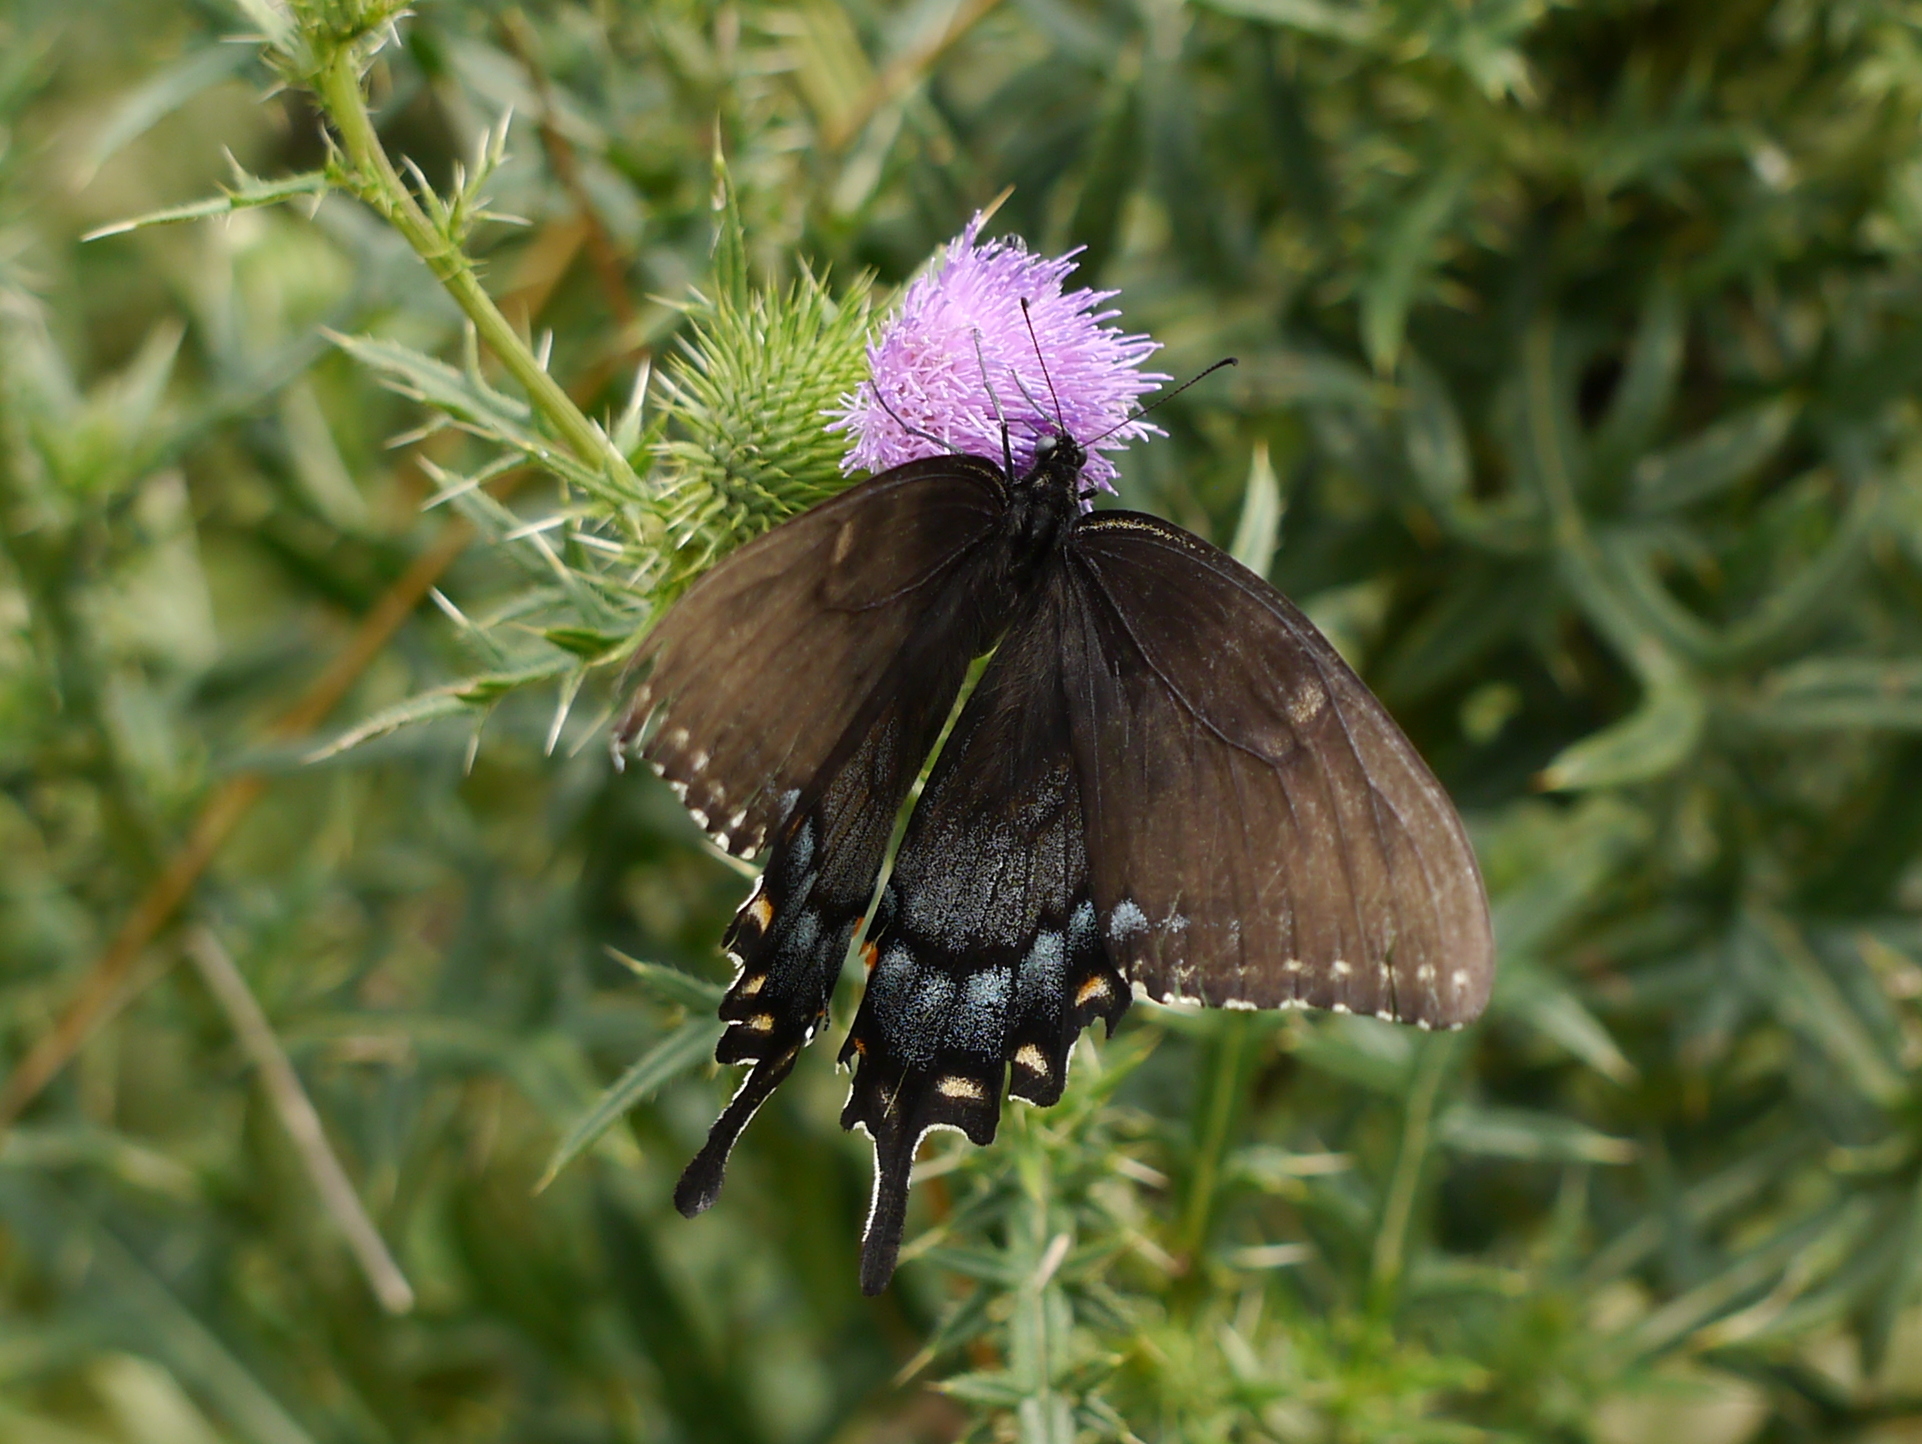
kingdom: Animalia
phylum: Arthropoda
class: Insecta
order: Lepidoptera
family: Papilionidae
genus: Papilio
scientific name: Papilio glaucus
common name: Tiger swallowtail
